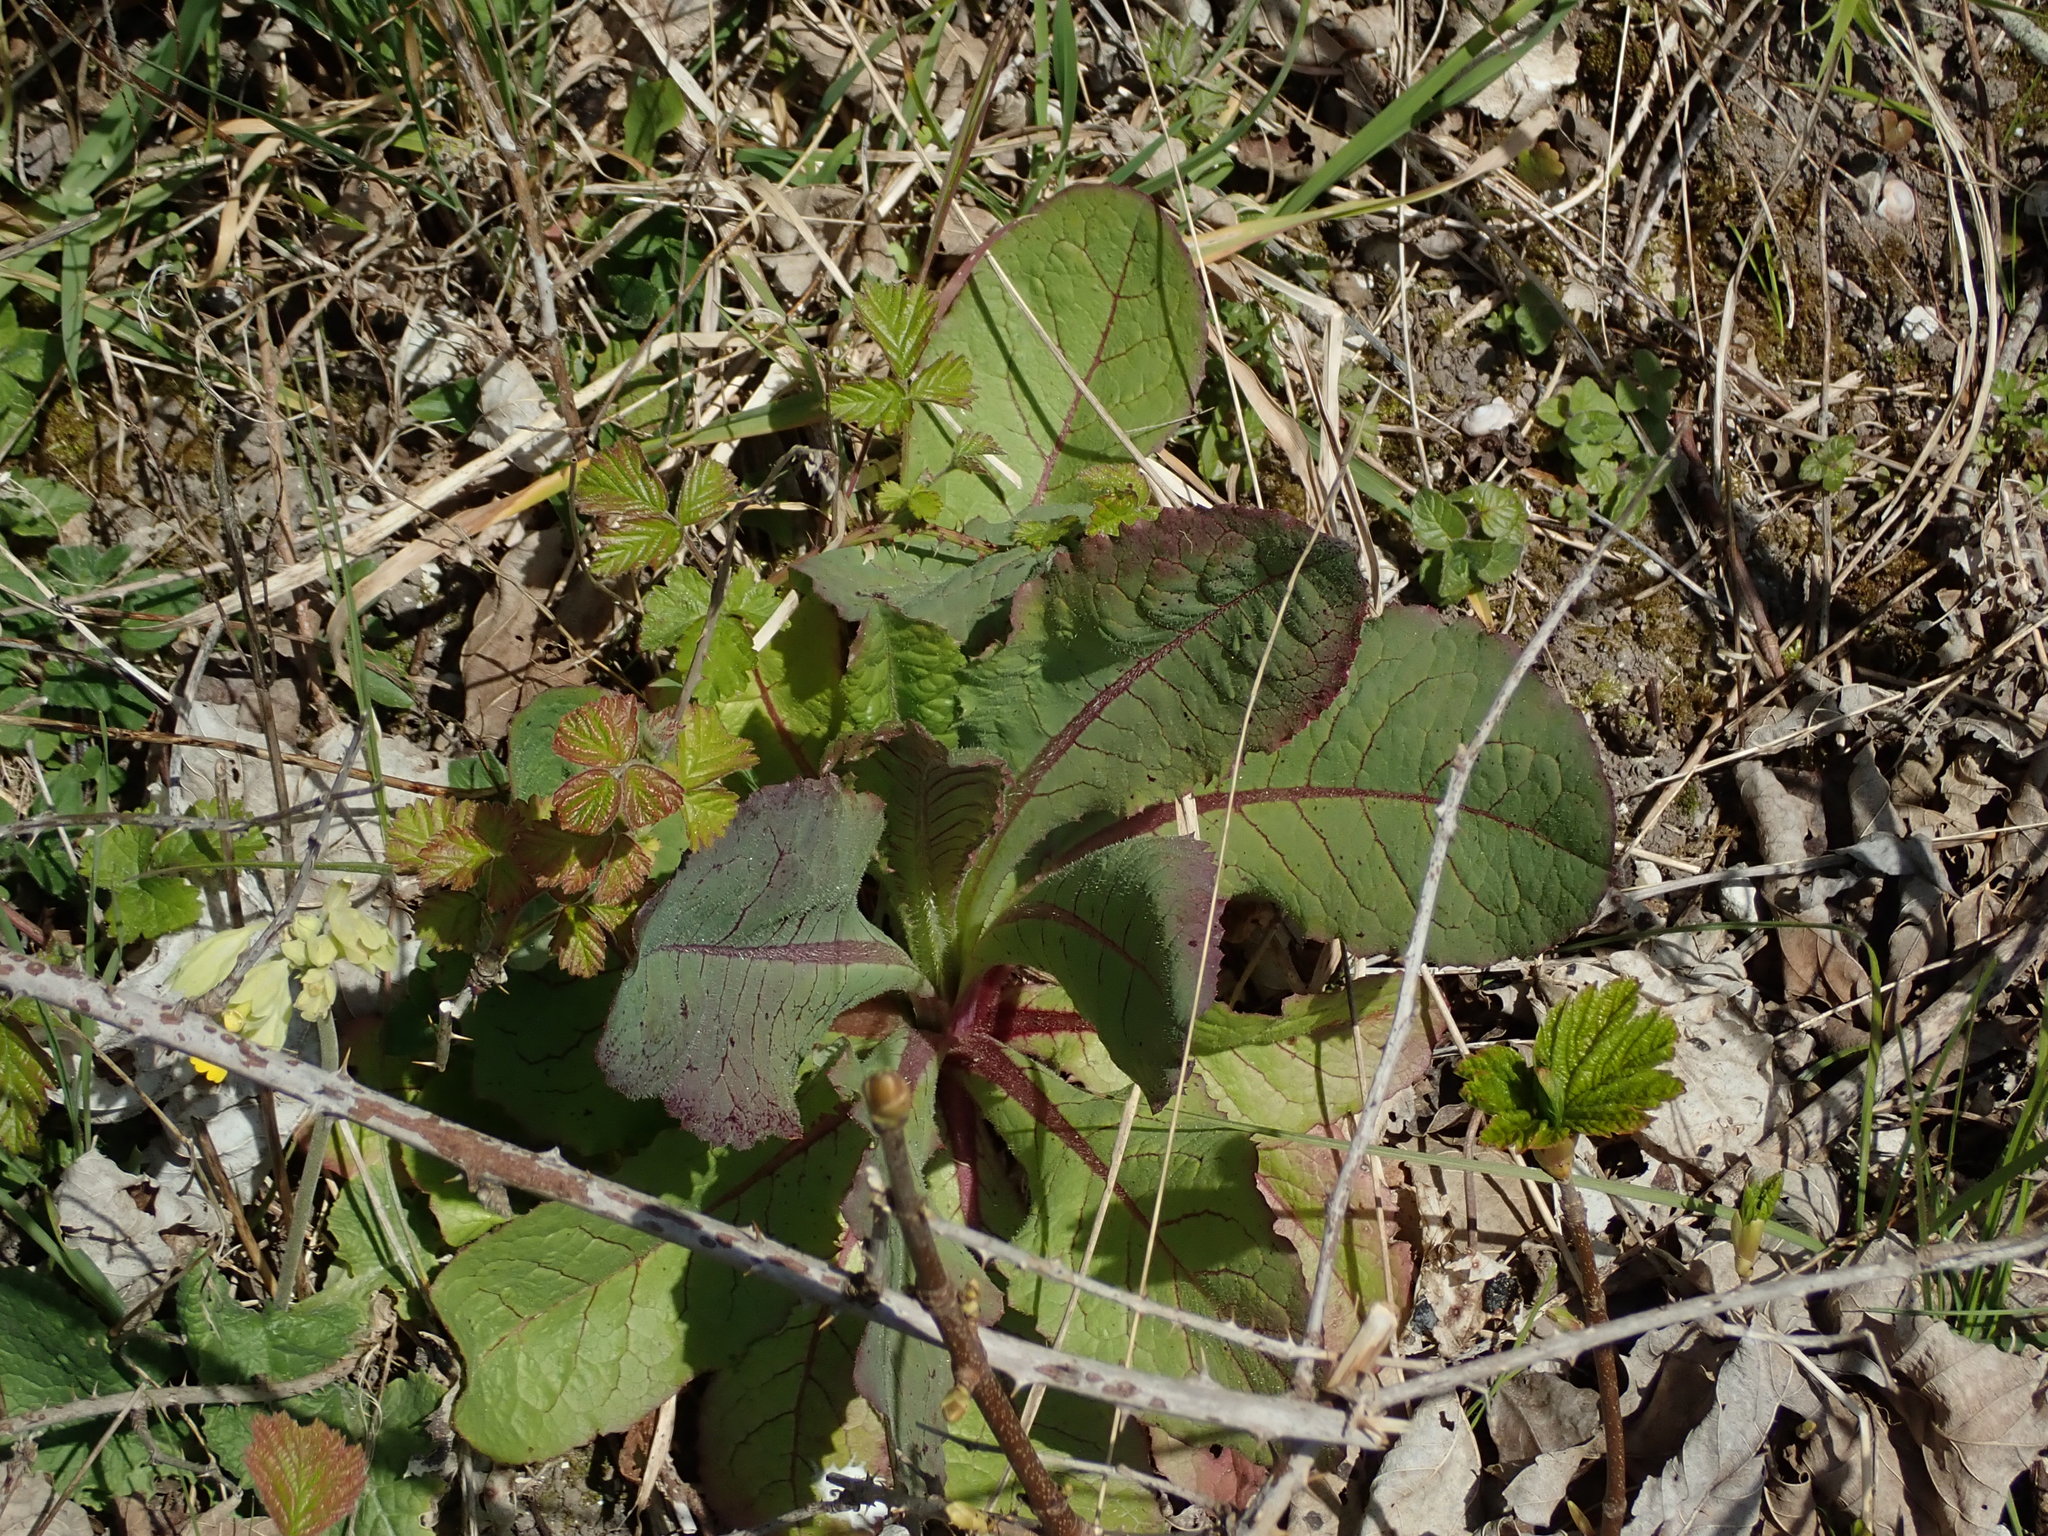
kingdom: Plantae
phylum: Tracheophyta
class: Magnoliopsida
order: Asterales
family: Asteraceae
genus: Lactuca
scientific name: Lactuca virosa
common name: Great lettuce
